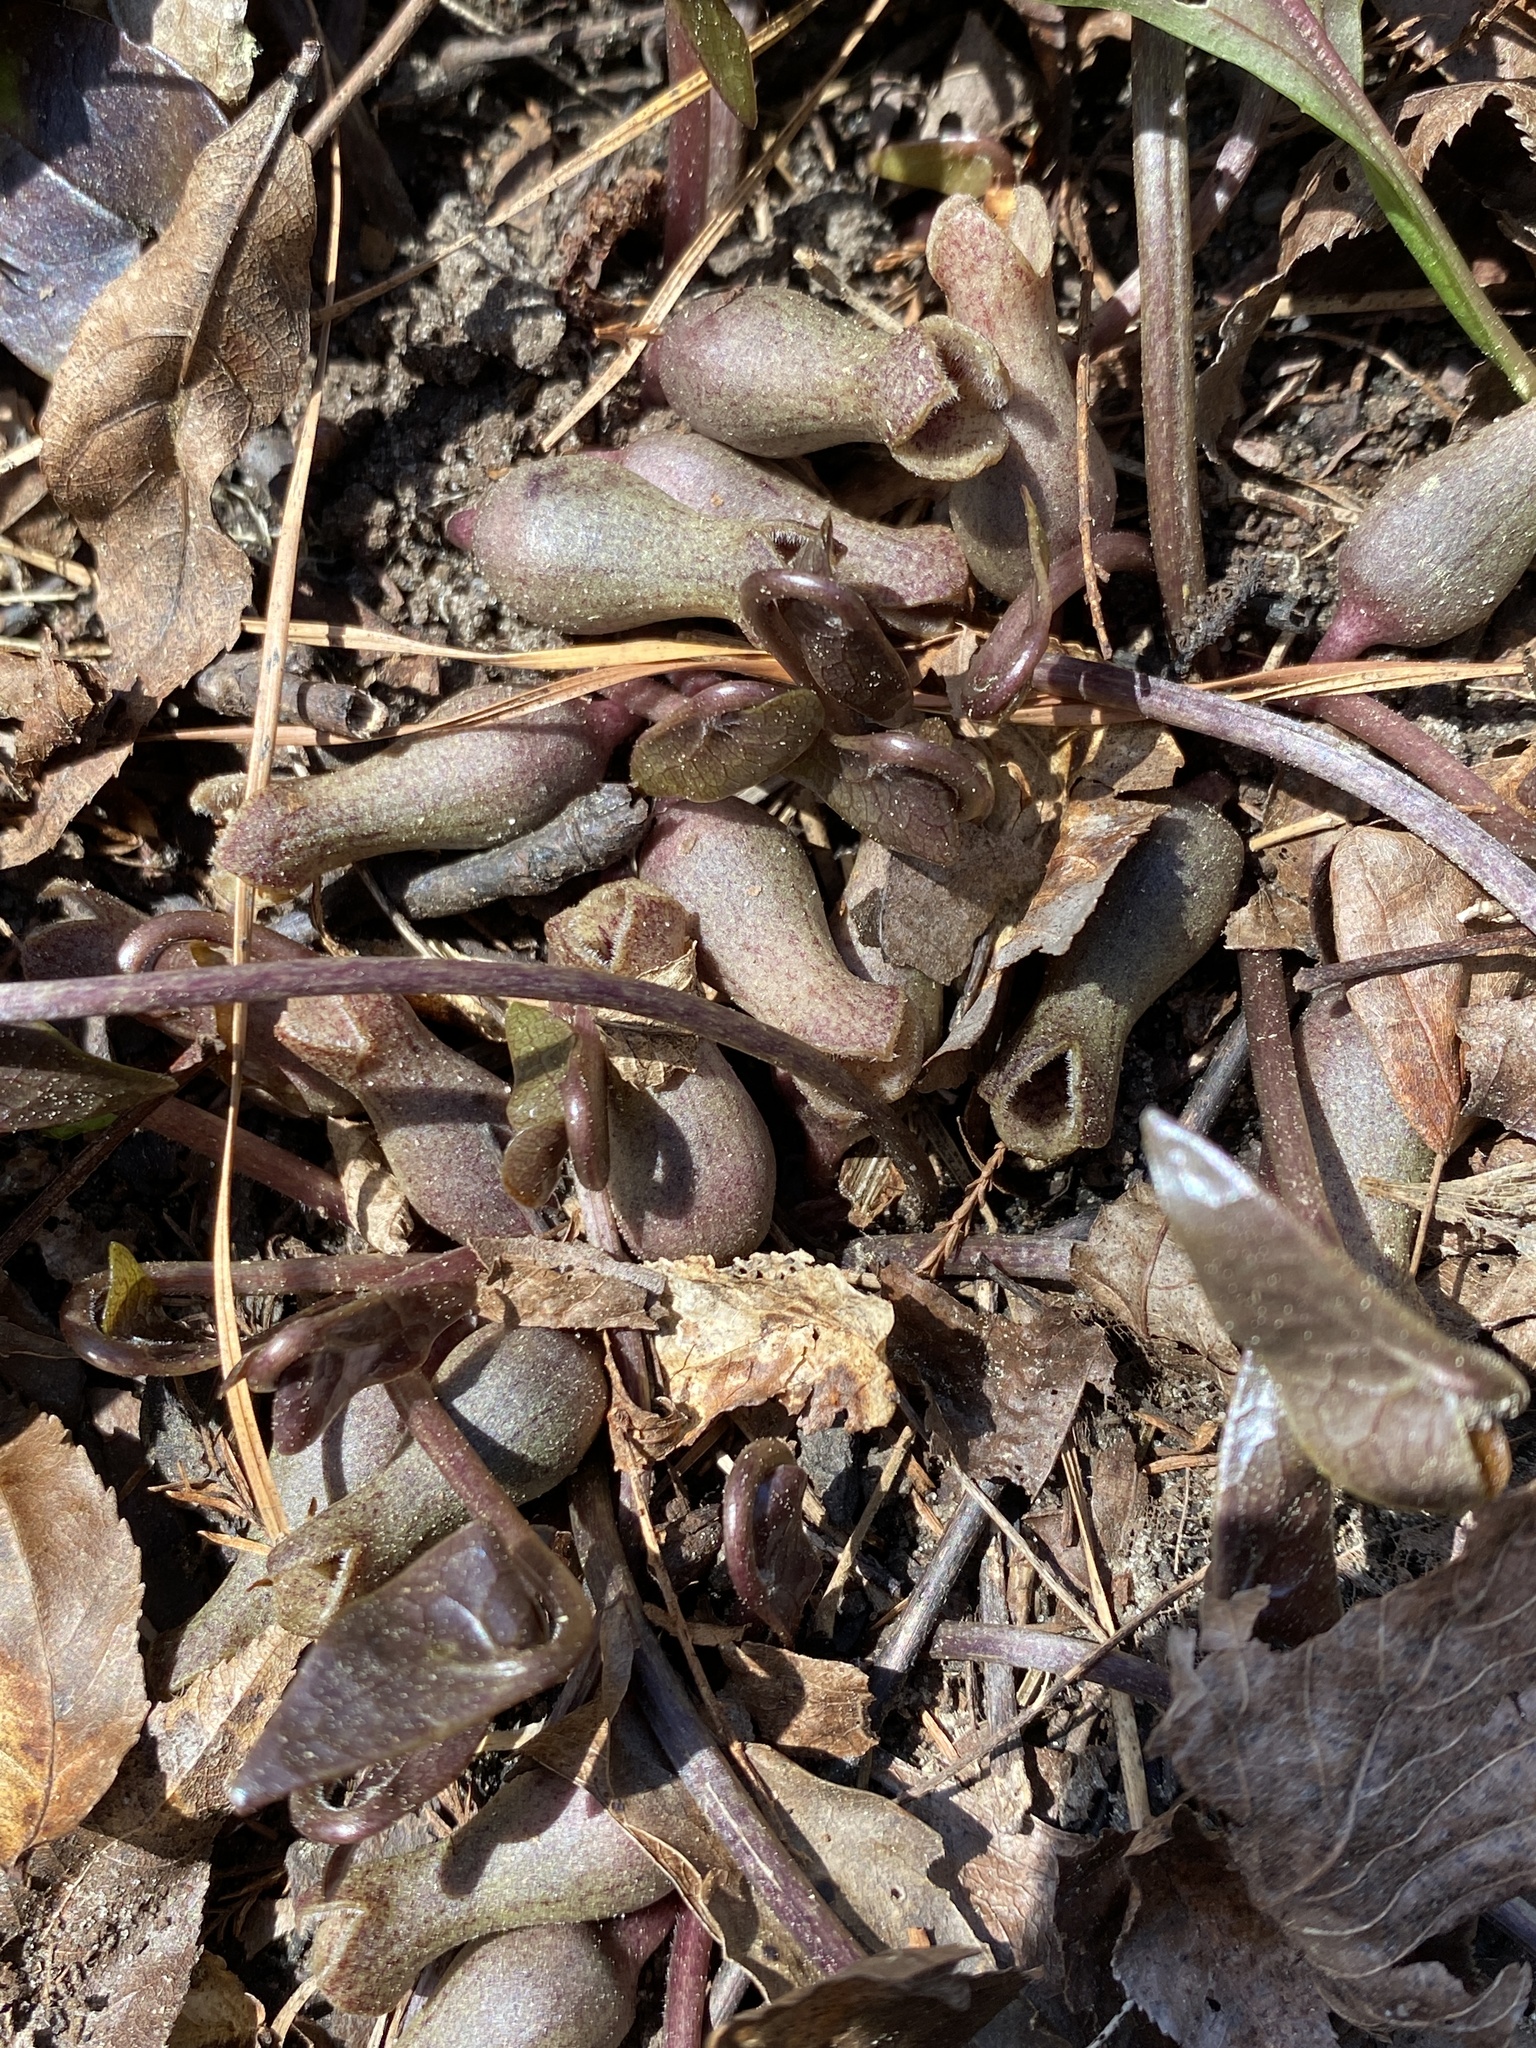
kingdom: Plantae
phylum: Tracheophyta
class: Magnoliopsida
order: Piperales
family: Aristolochiaceae
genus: Hexastylis
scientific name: Hexastylis arifolia
